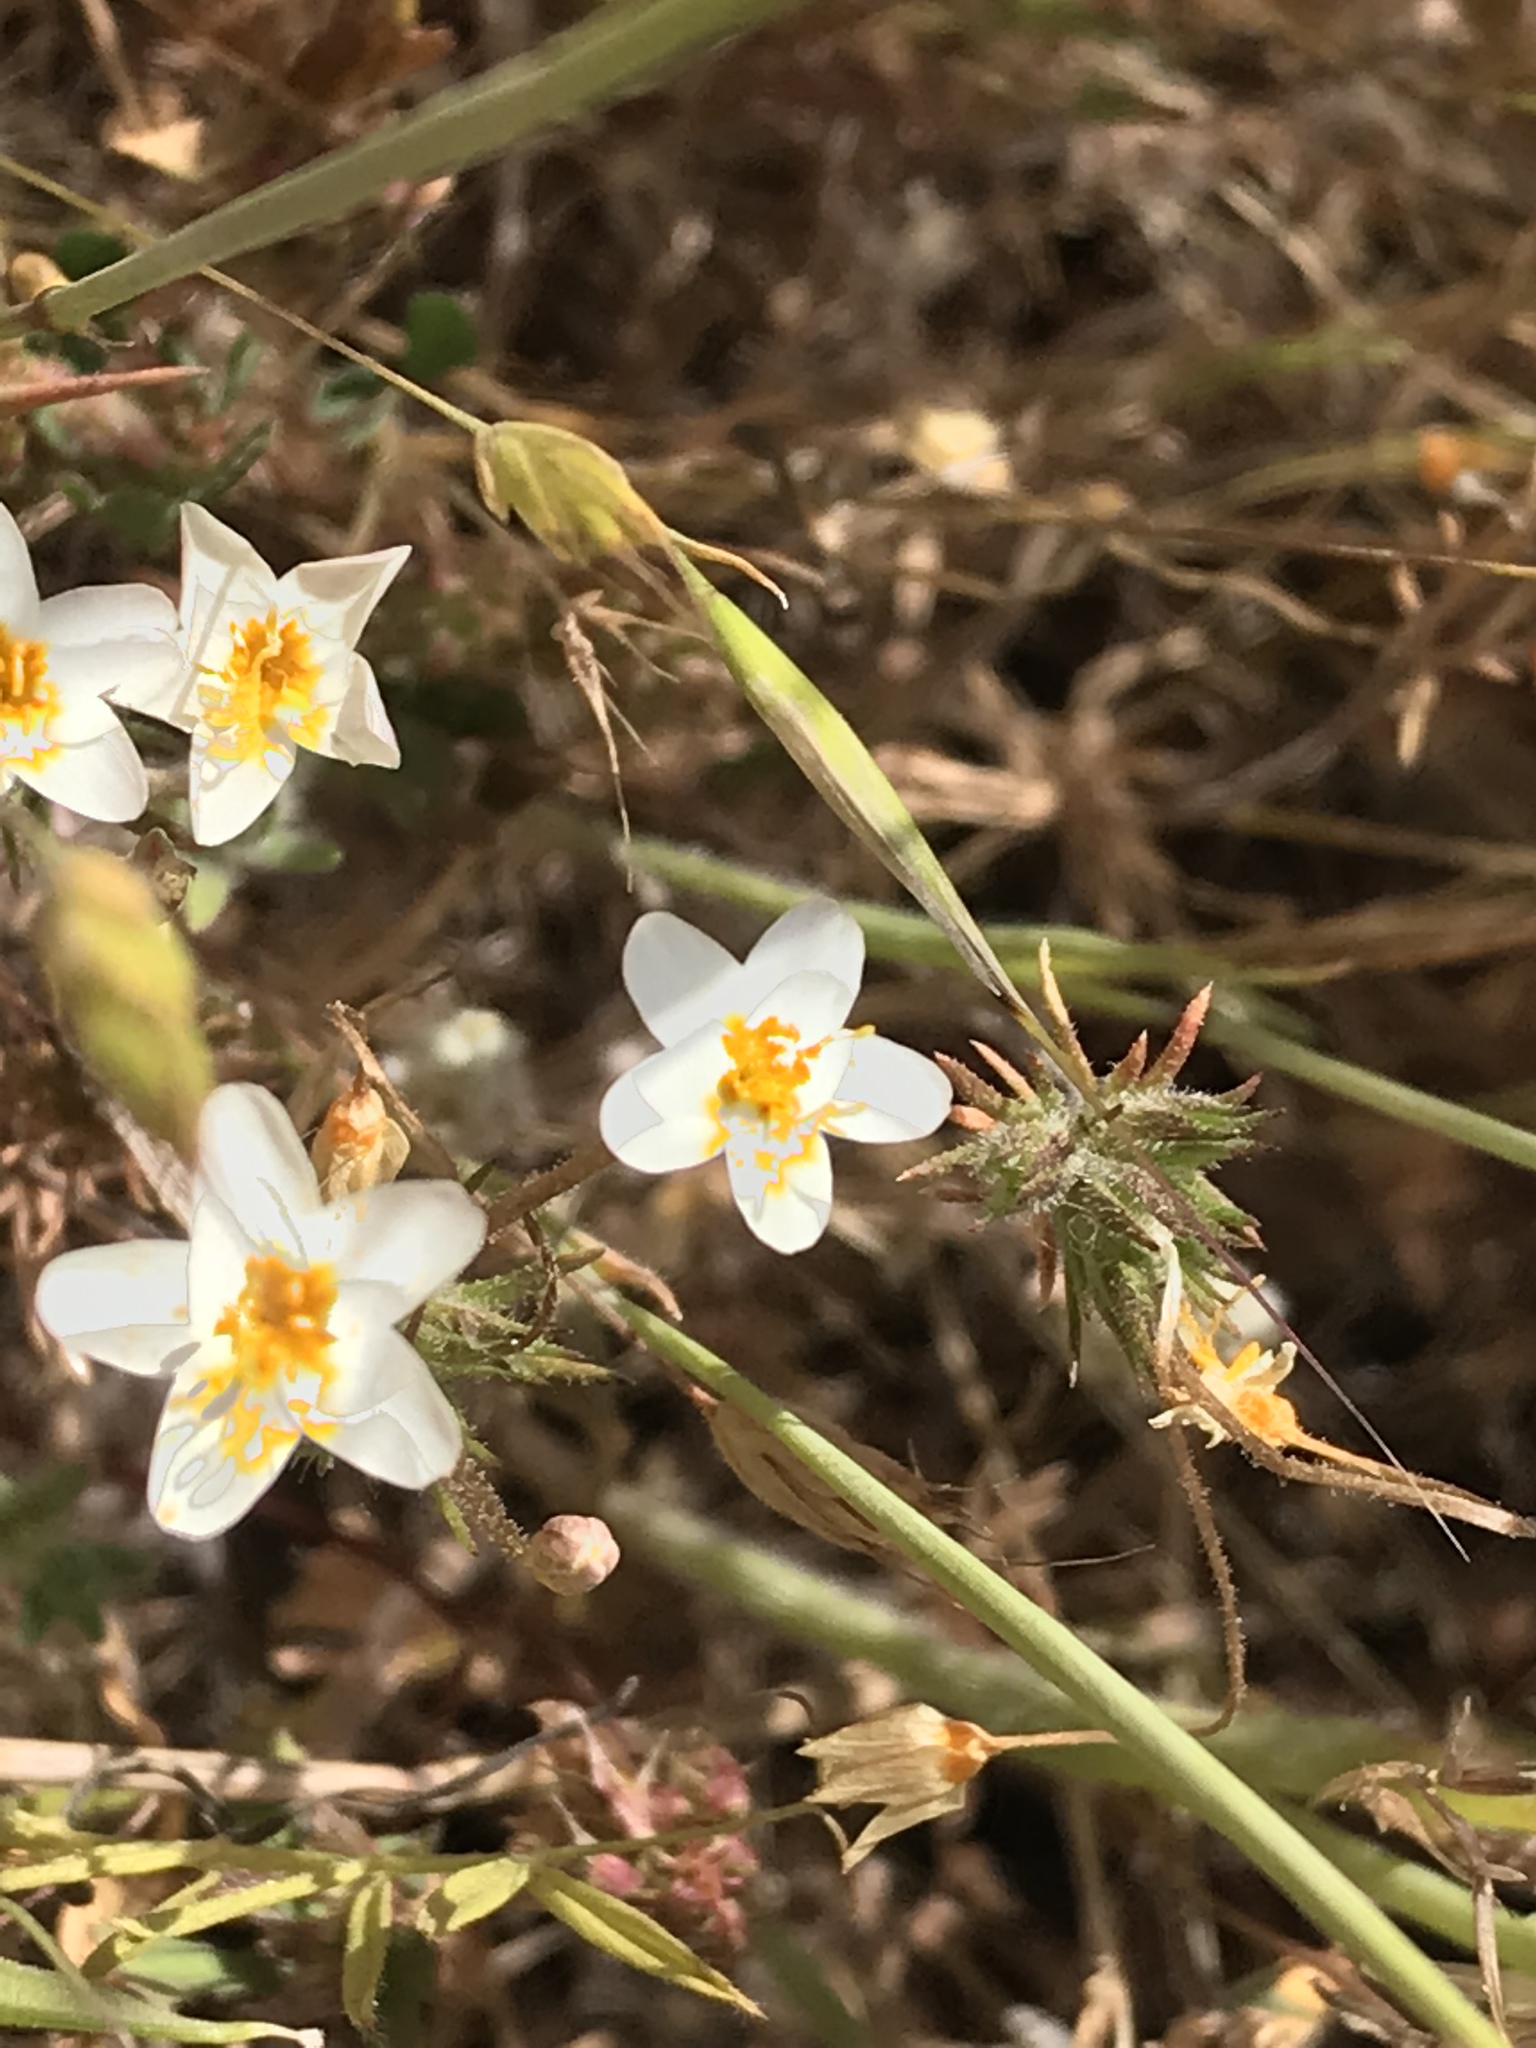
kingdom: Plantae
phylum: Tracheophyta
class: Magnoliopsida
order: Ericales
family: Polemoniaceae
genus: Leptosiphon
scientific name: Leptosiphon parviflorus
